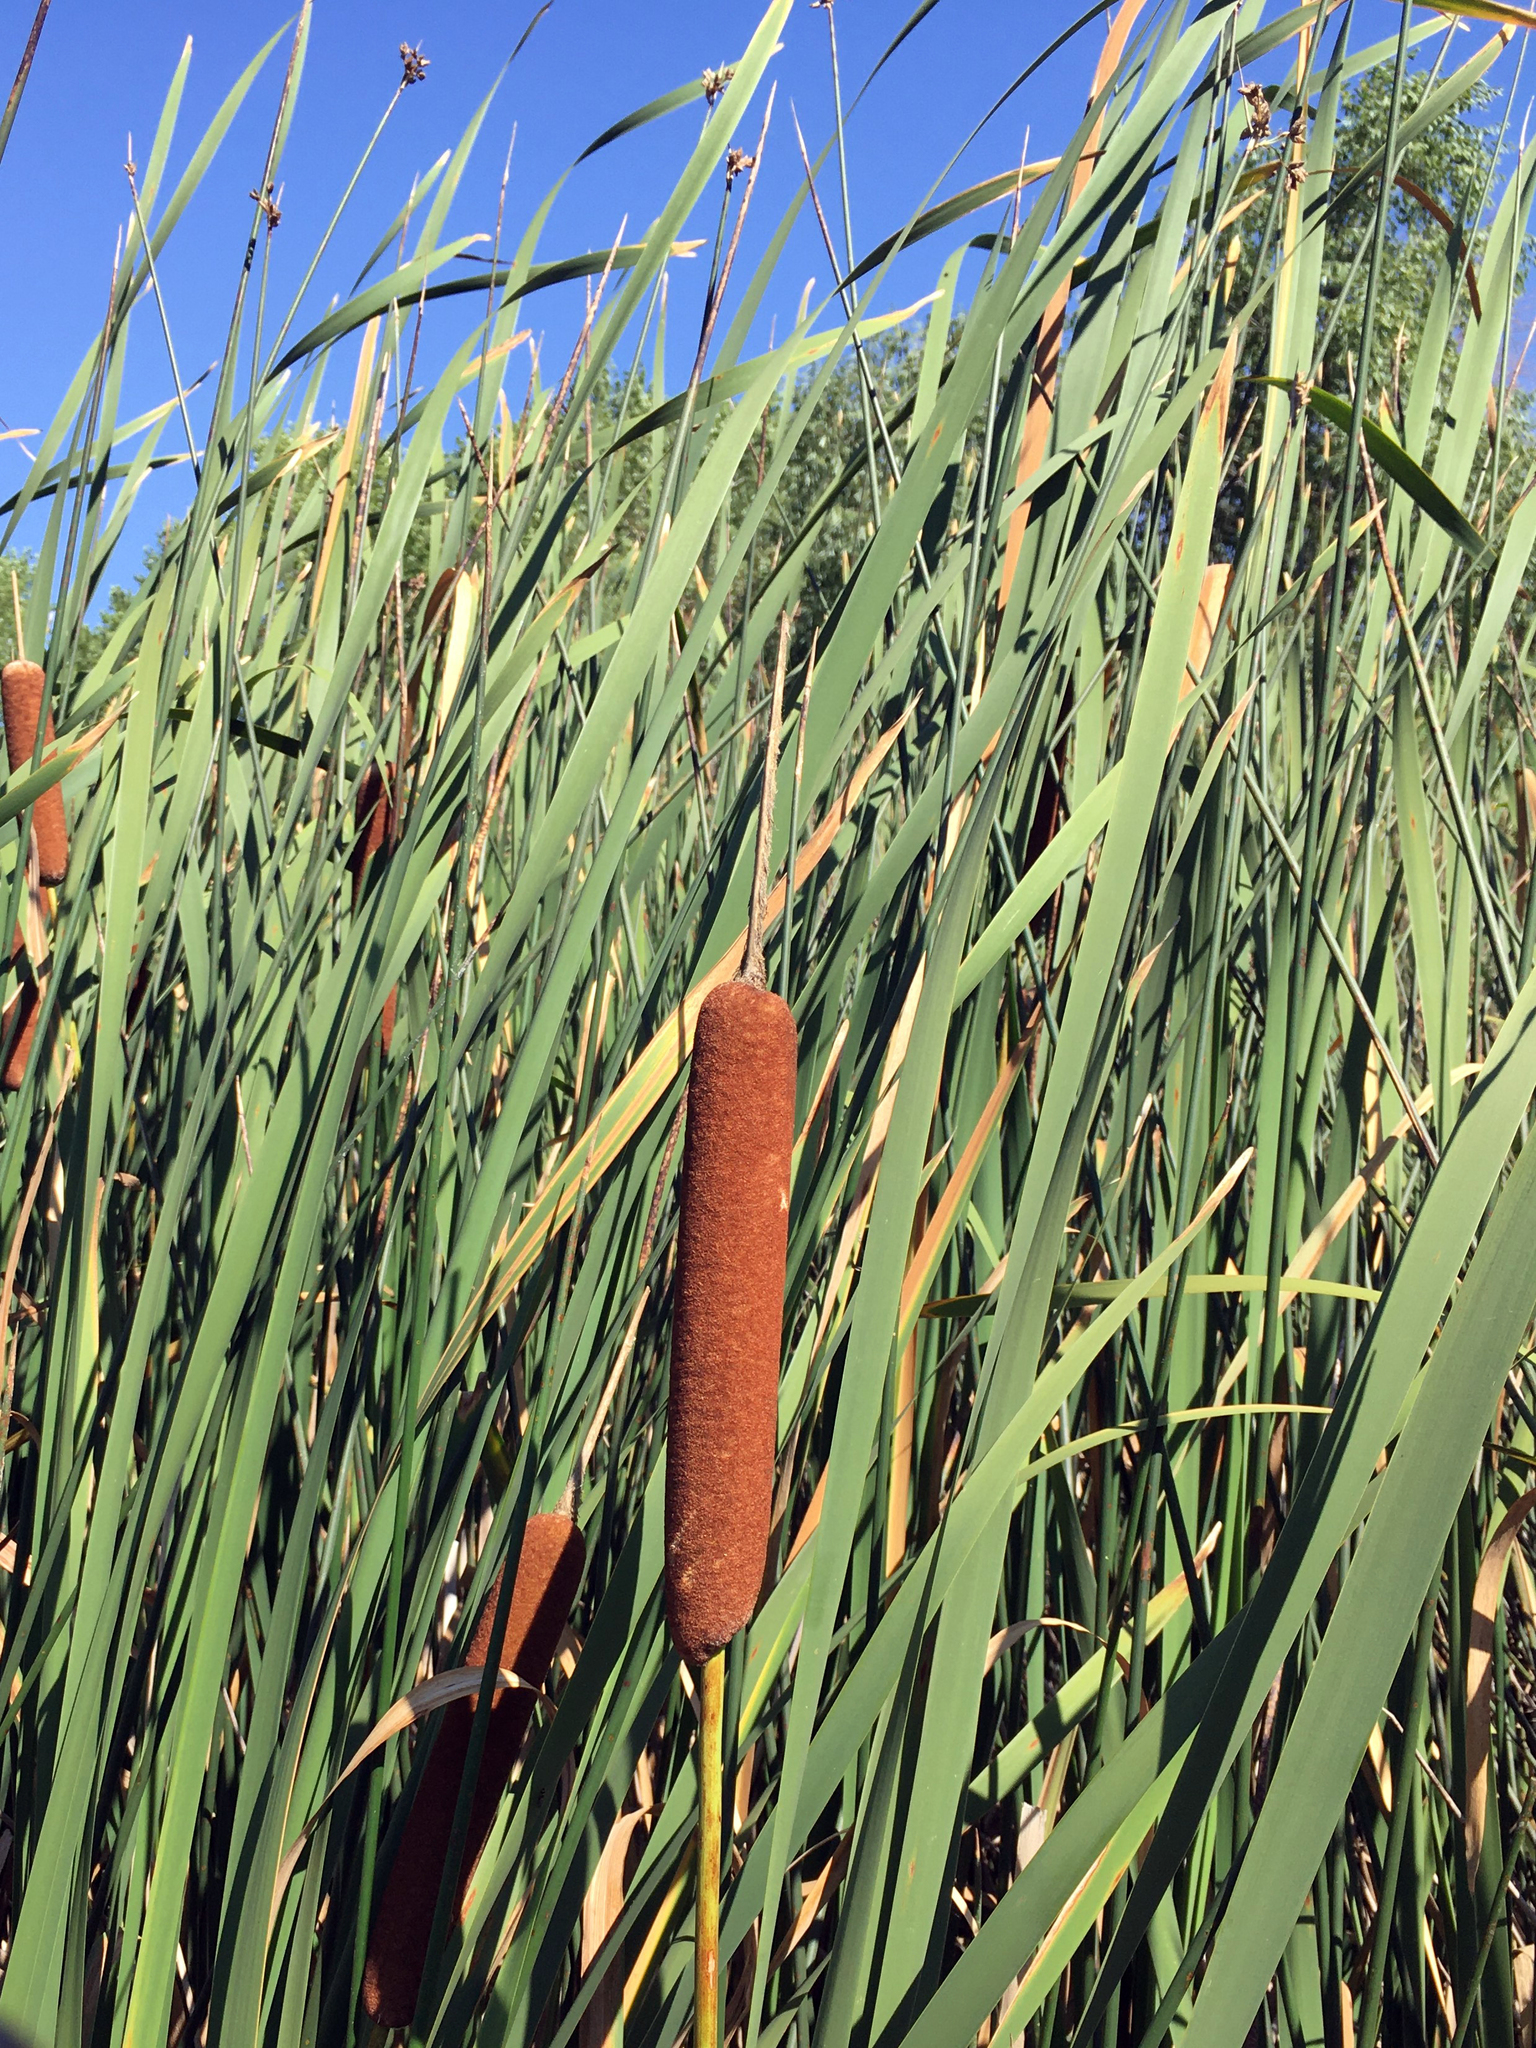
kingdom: Plantae
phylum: Tracheophyta
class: Liliopsida
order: Poales
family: Typhaceae
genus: Typha
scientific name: Typha latifolia
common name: Broadleaf cattail
